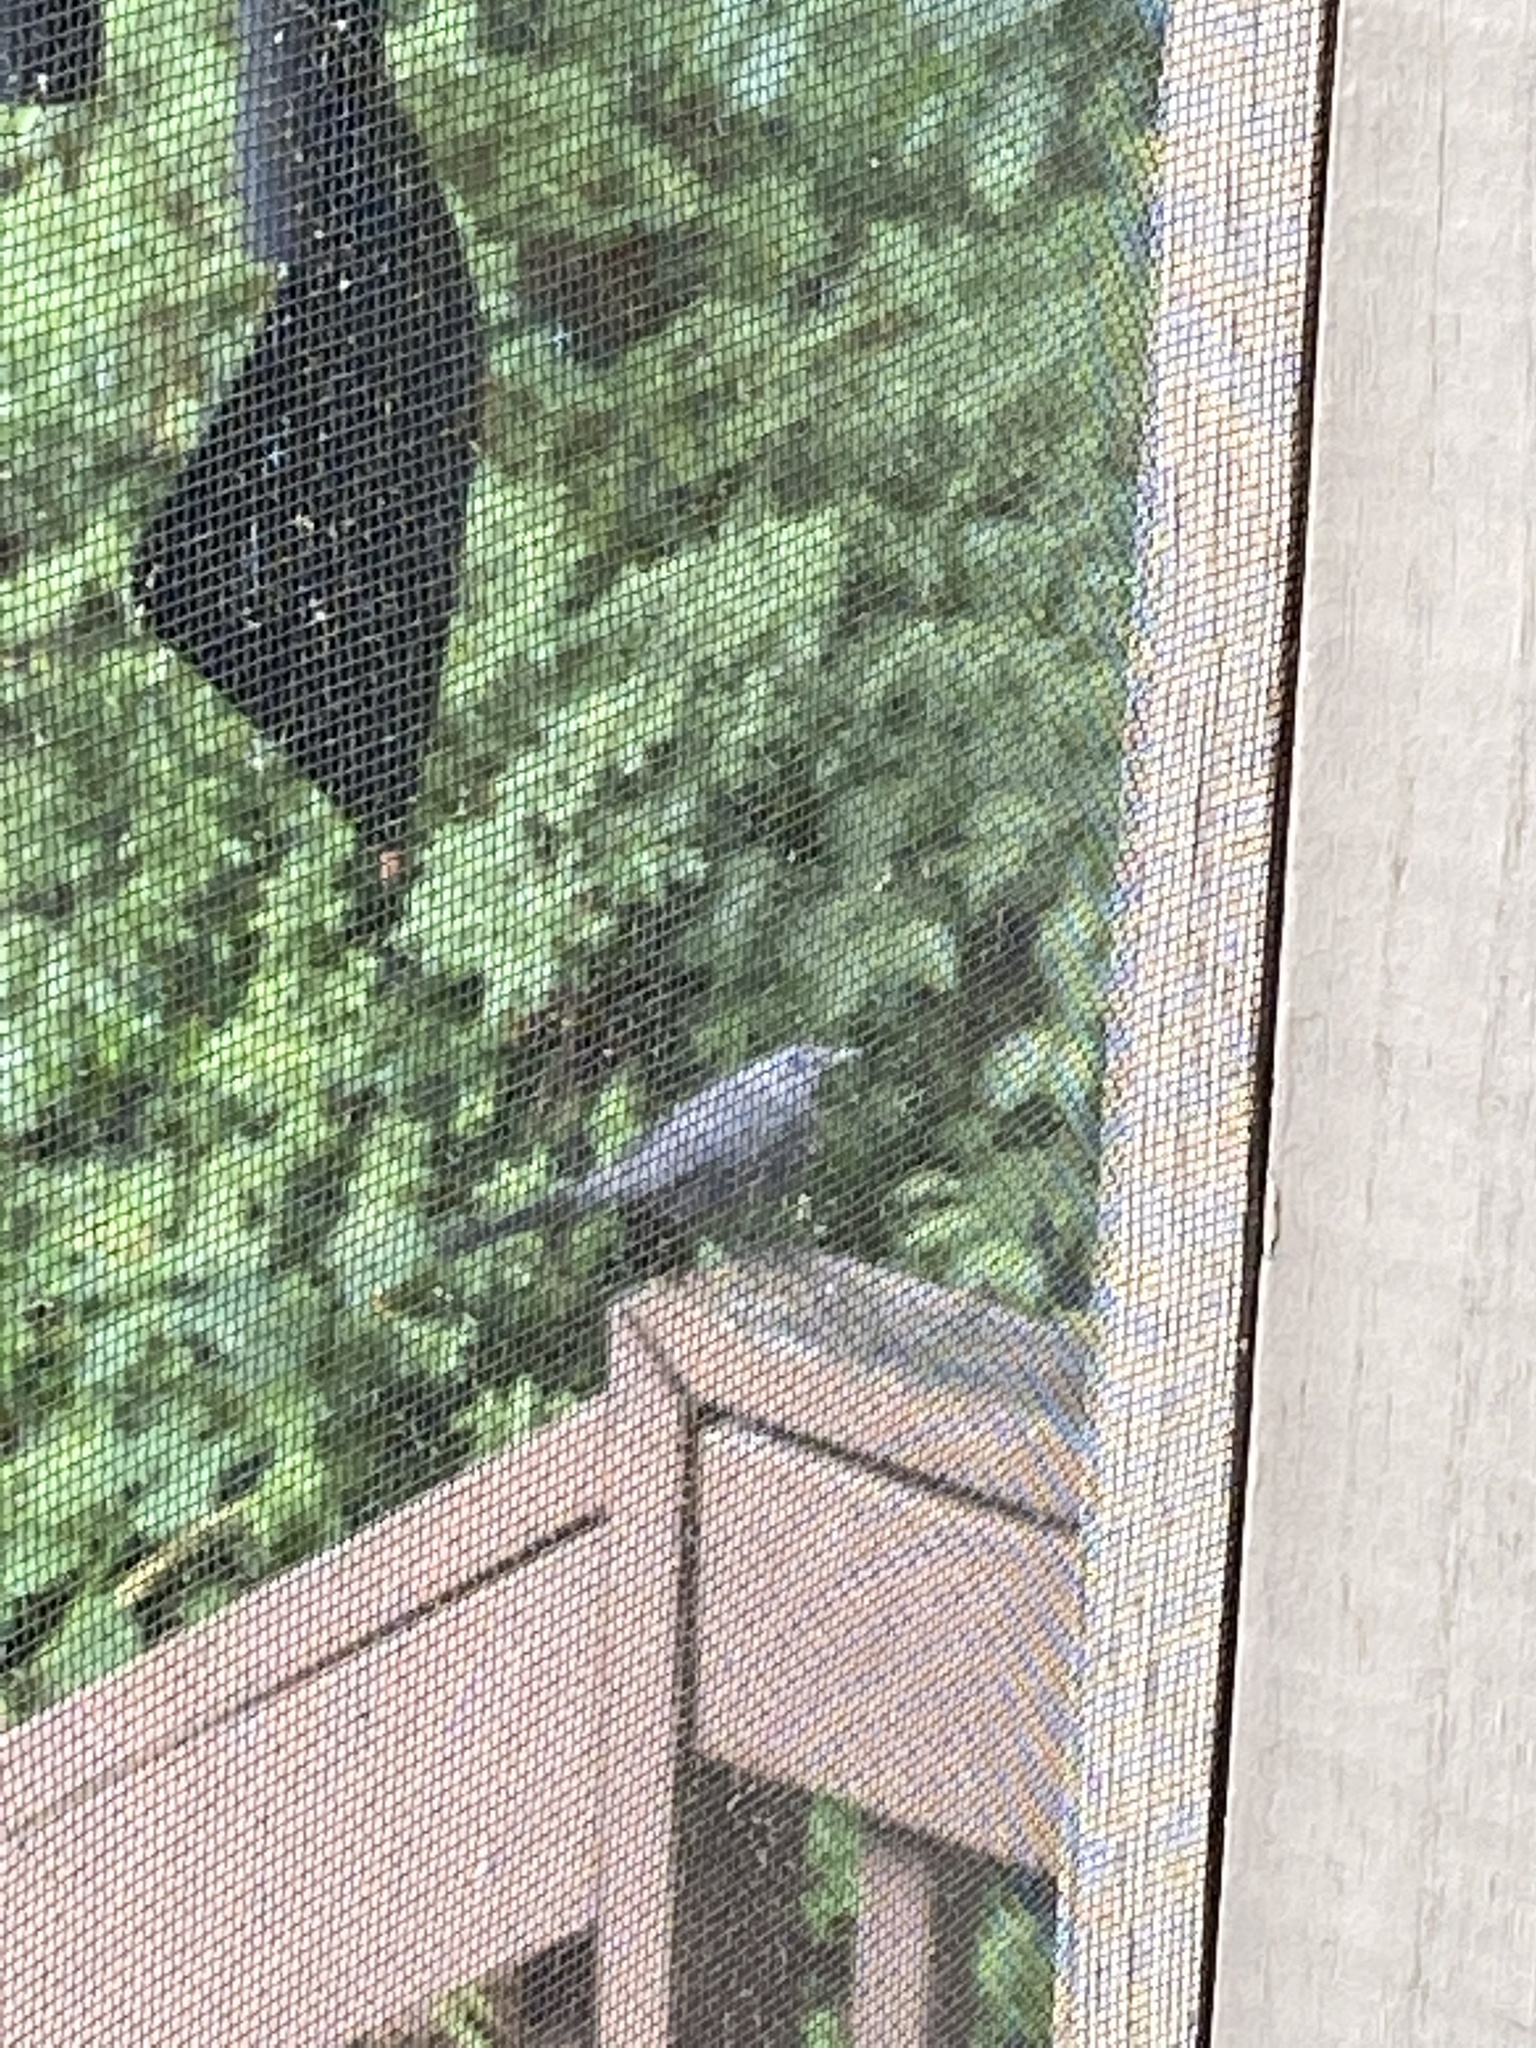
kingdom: Animalia
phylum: Chordata
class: Aves
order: Passeriformes
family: Mimidae
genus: Dumetella
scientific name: Dumetella carolinensis
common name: Gray catbird
